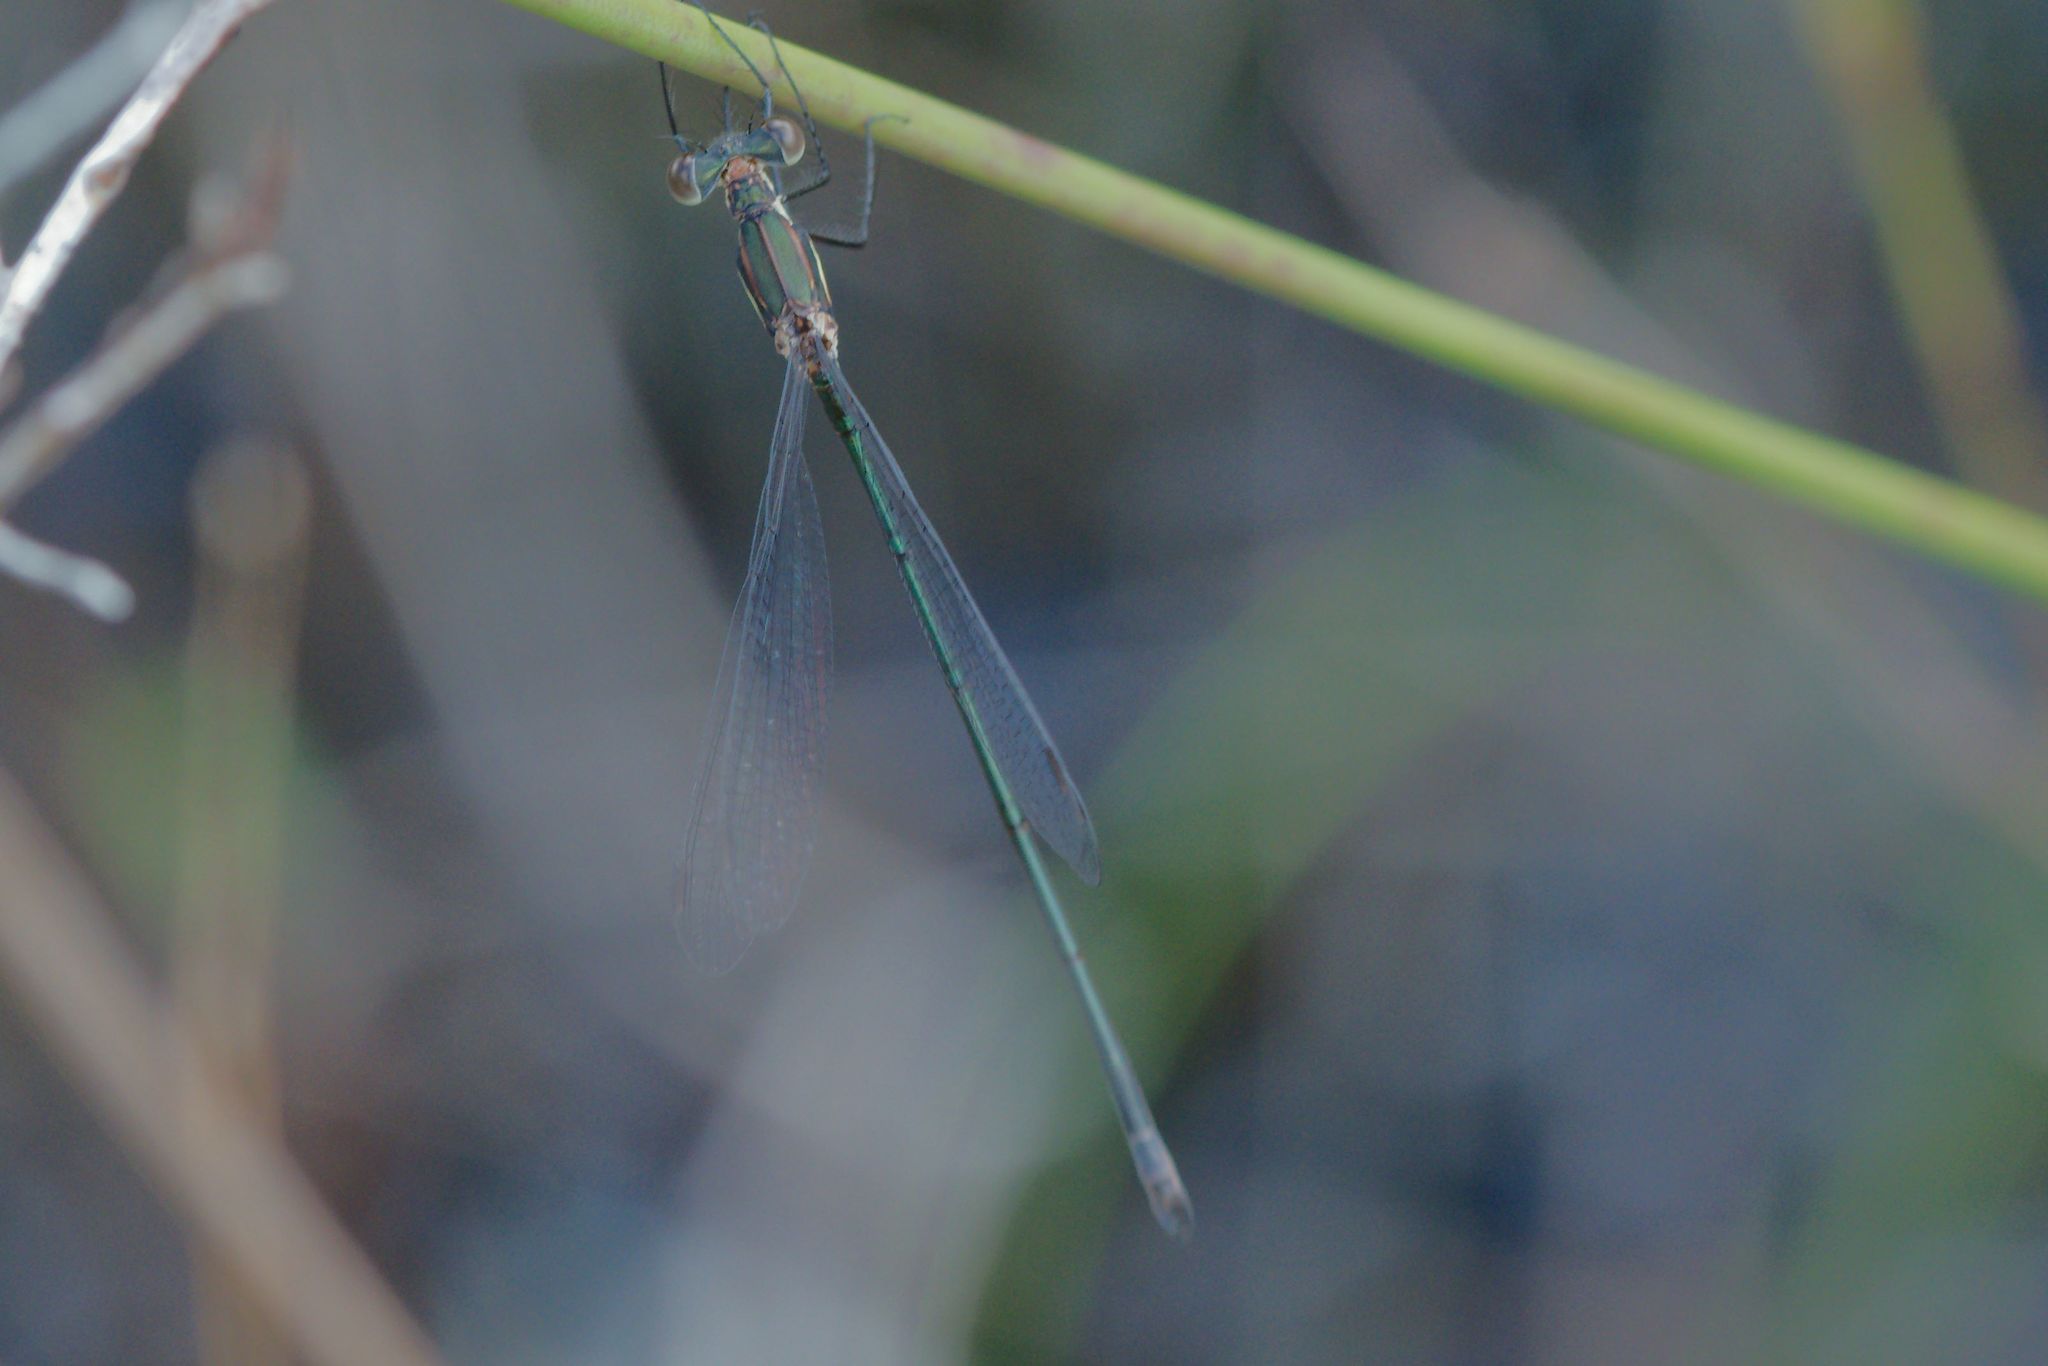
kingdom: Animalia
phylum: Arthropoda
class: Insecta
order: Odonata
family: Lestidae
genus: Lestes
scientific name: Lestes vigilax
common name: Swamp spreadwing
